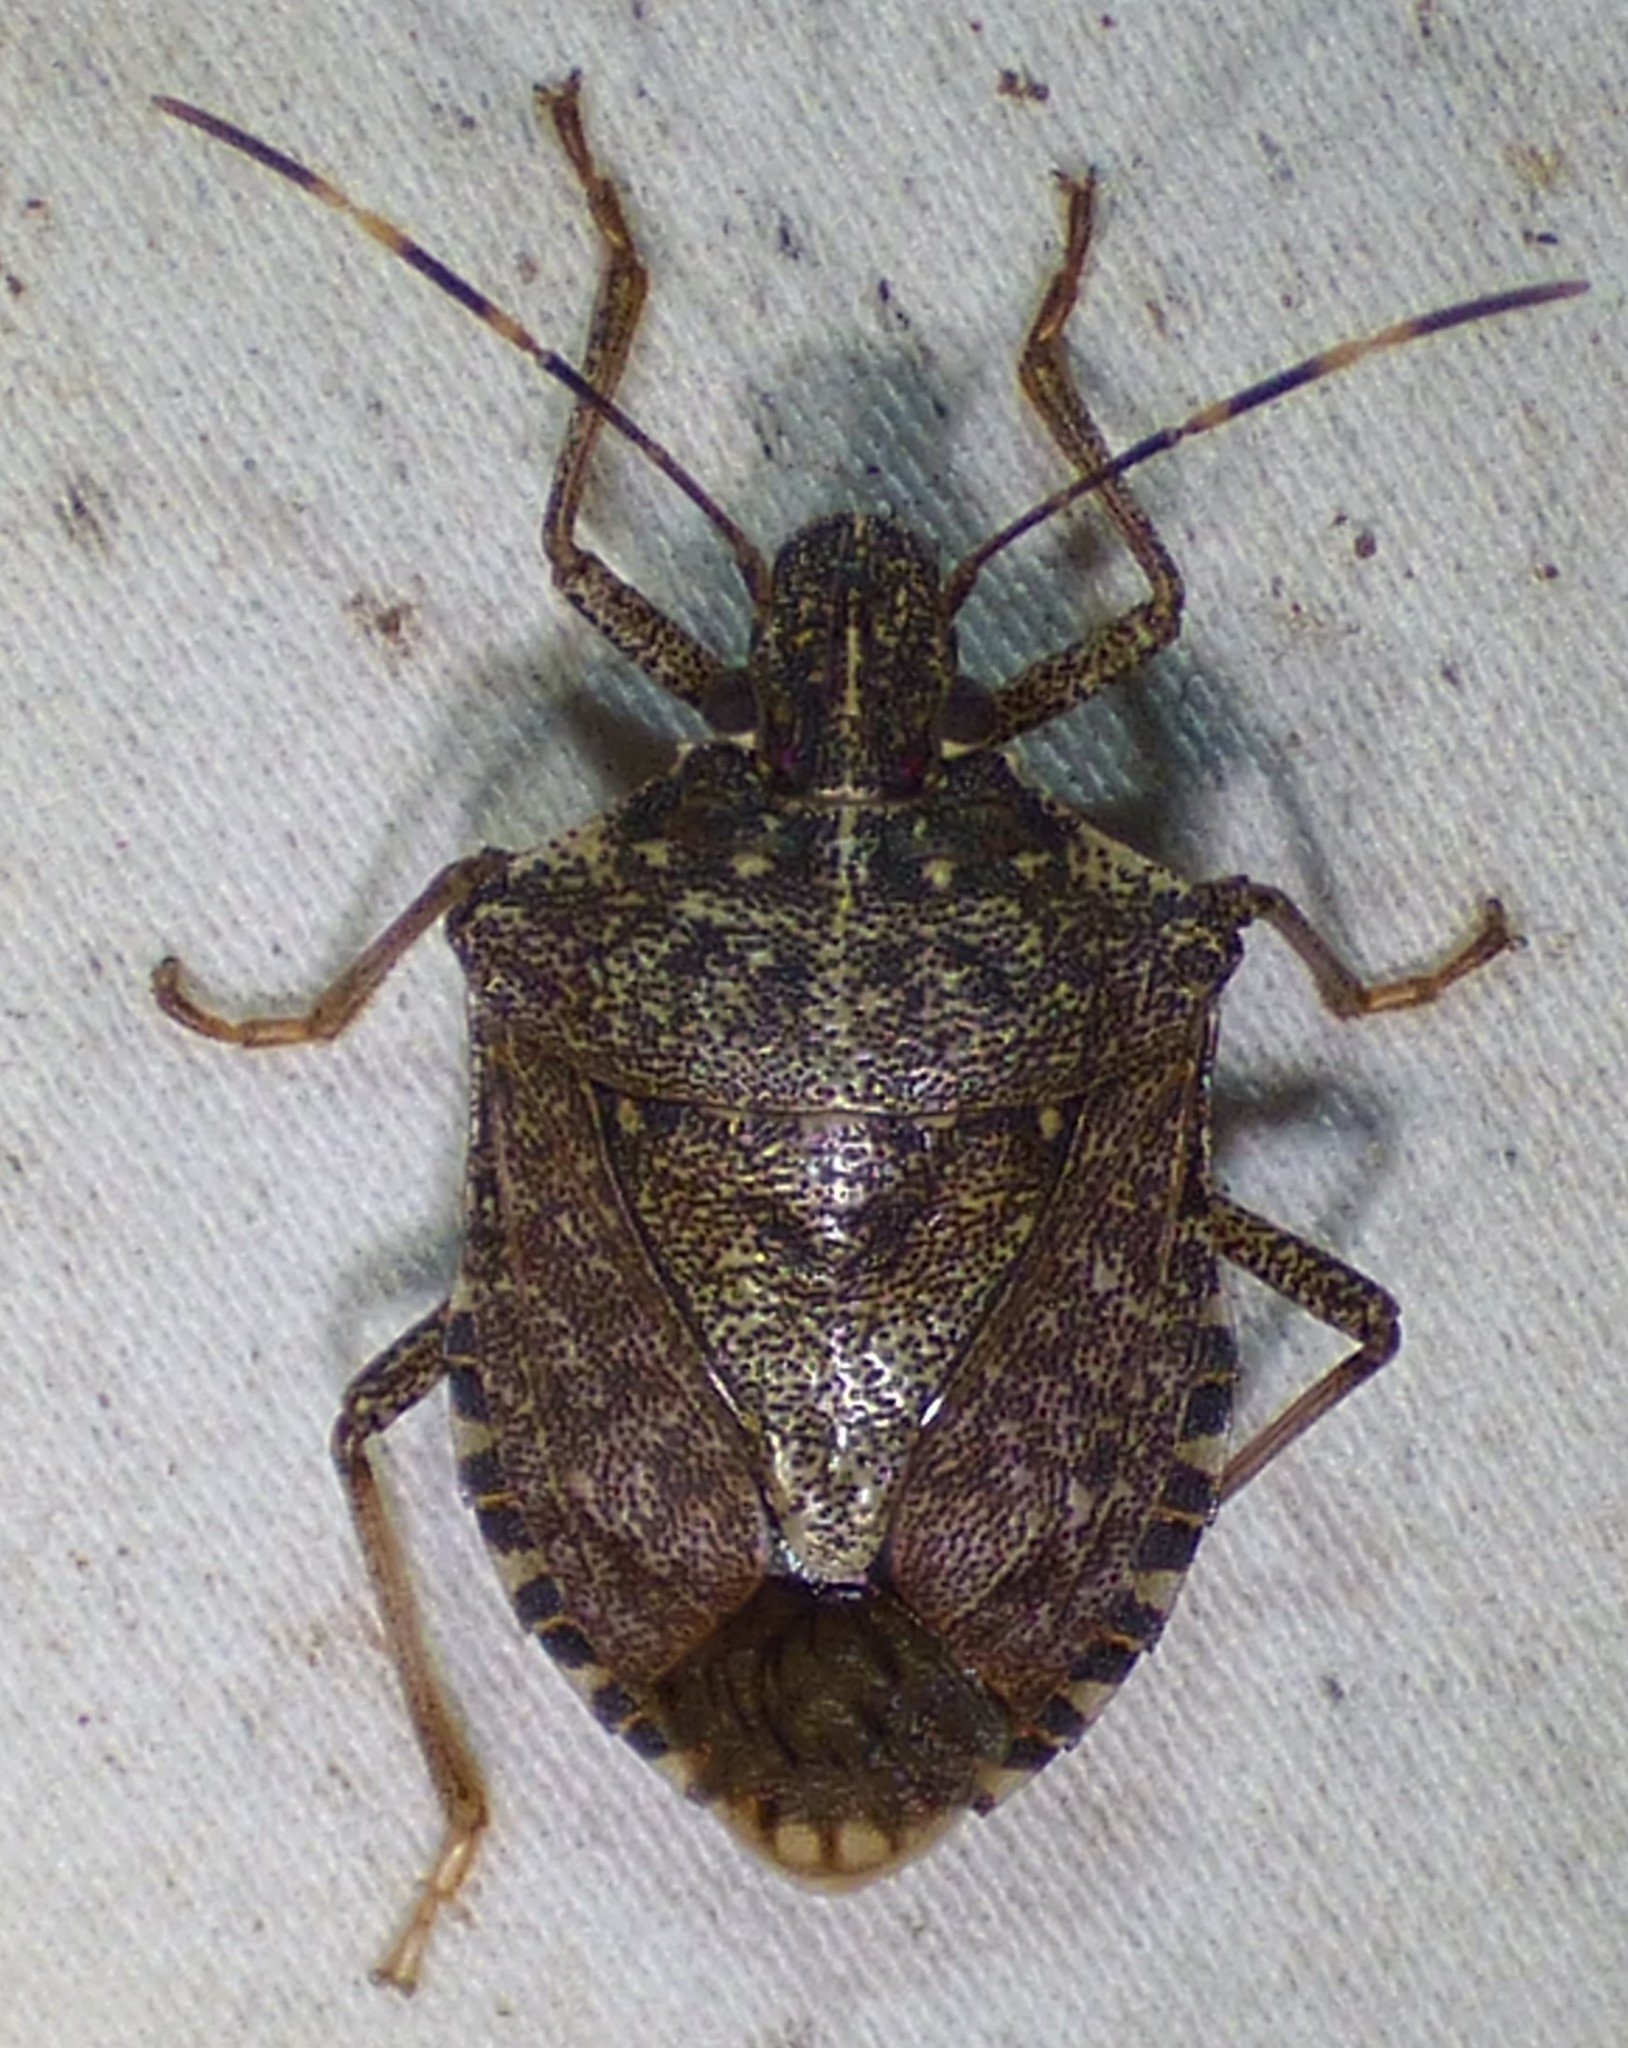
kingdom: Animalia
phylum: Arthropoda
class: Insecta
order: Hemiptera
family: Pentatomidae
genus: Halyomorpha
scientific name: Halyomorpha halys
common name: Brown marmorated stink bug
